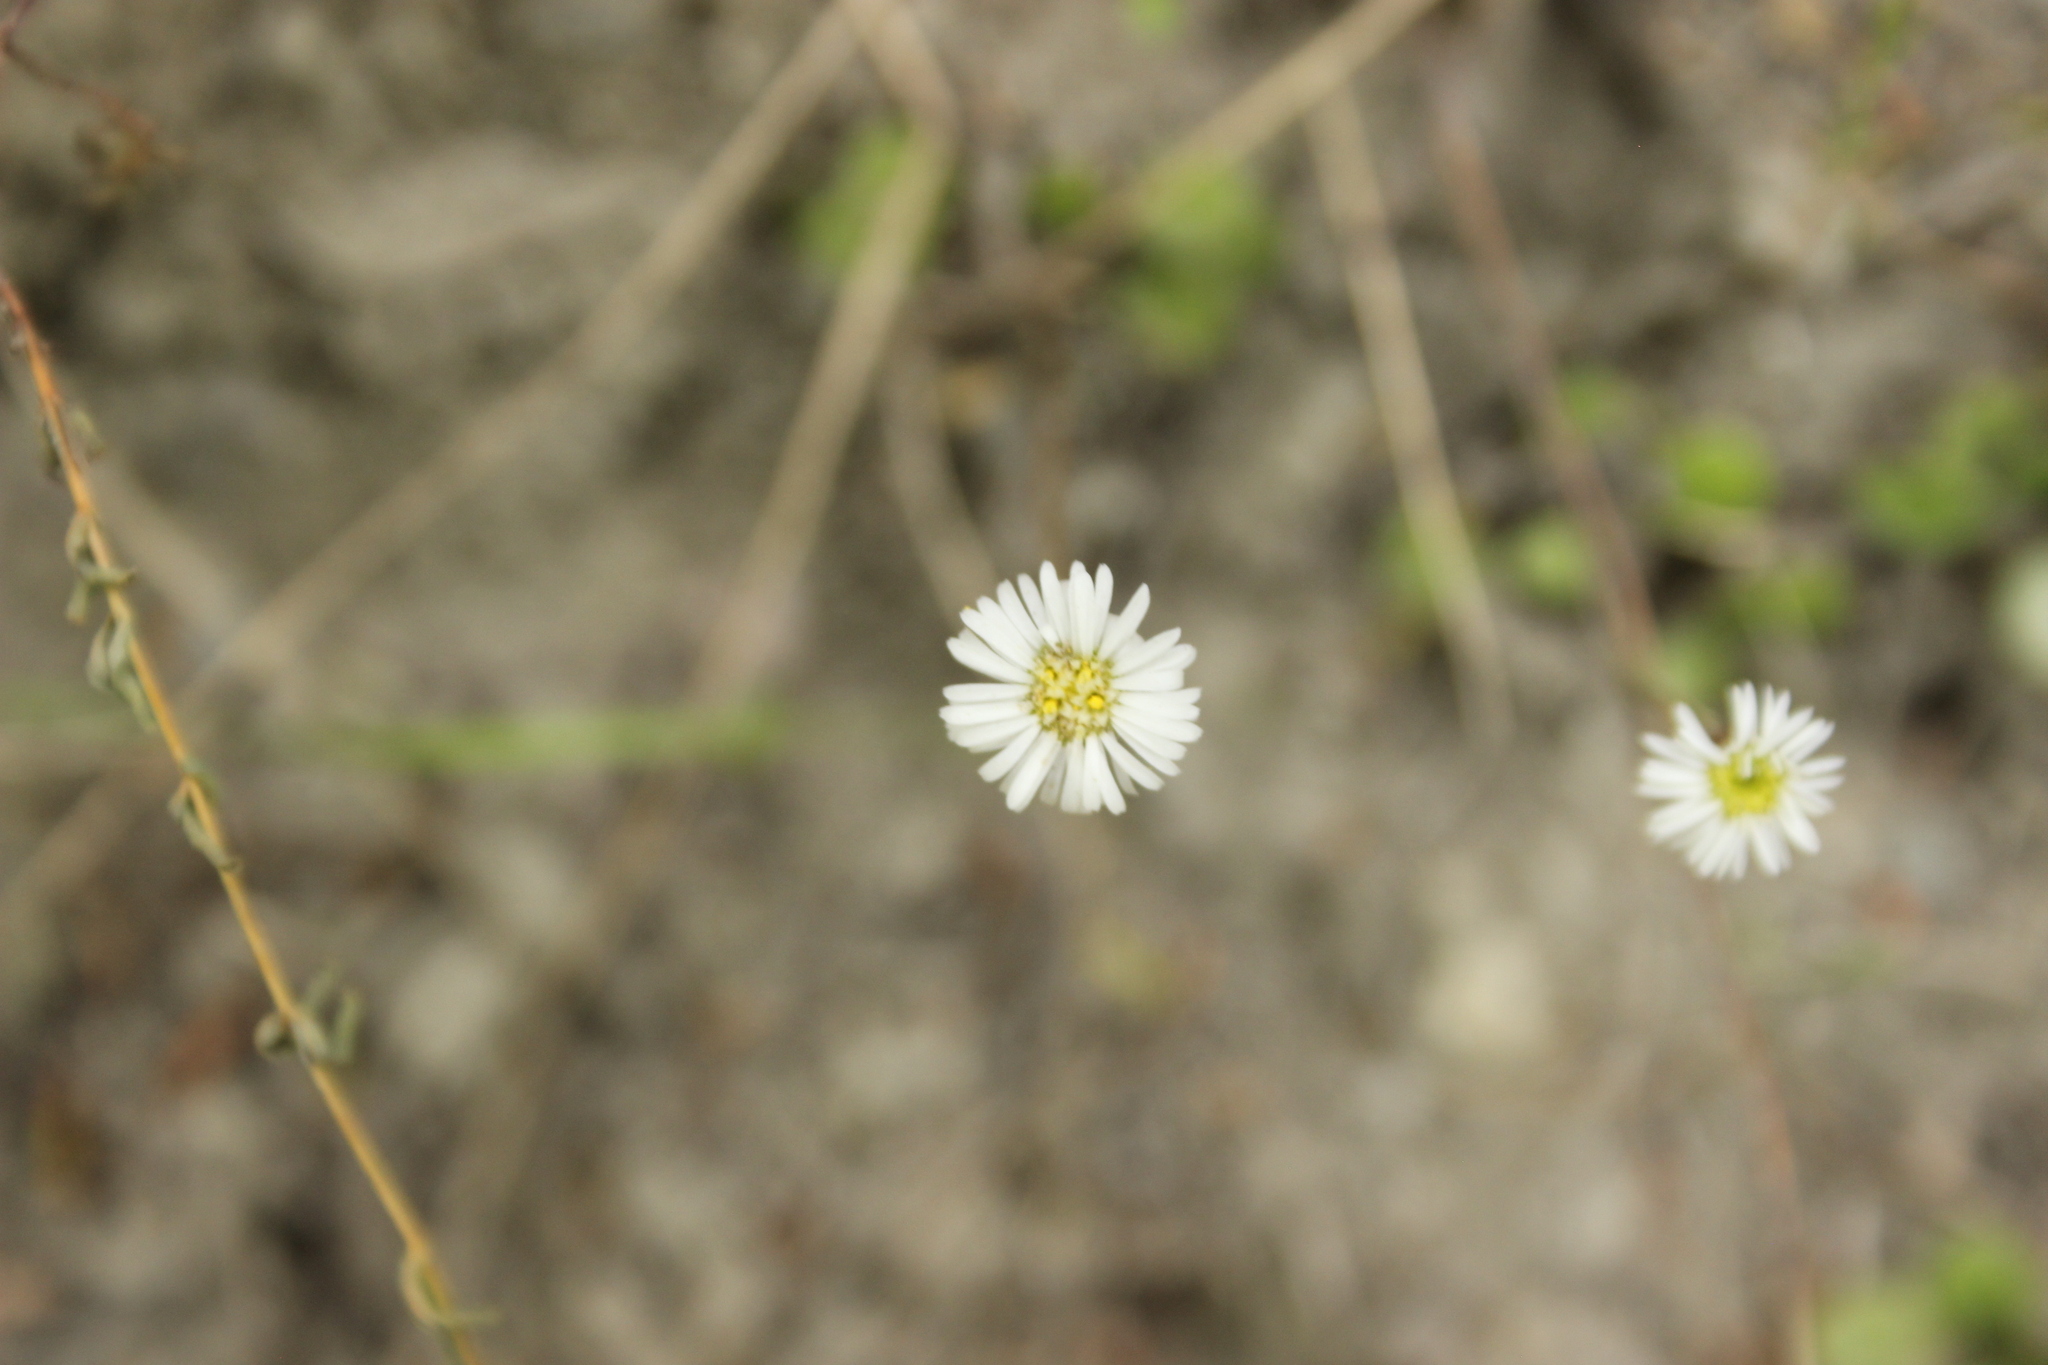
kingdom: Plantae
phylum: Tracheophyta
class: Magnoliopsida
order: Asterales
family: Asteraceae
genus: Lagenophora
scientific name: Lagenophora pumila
